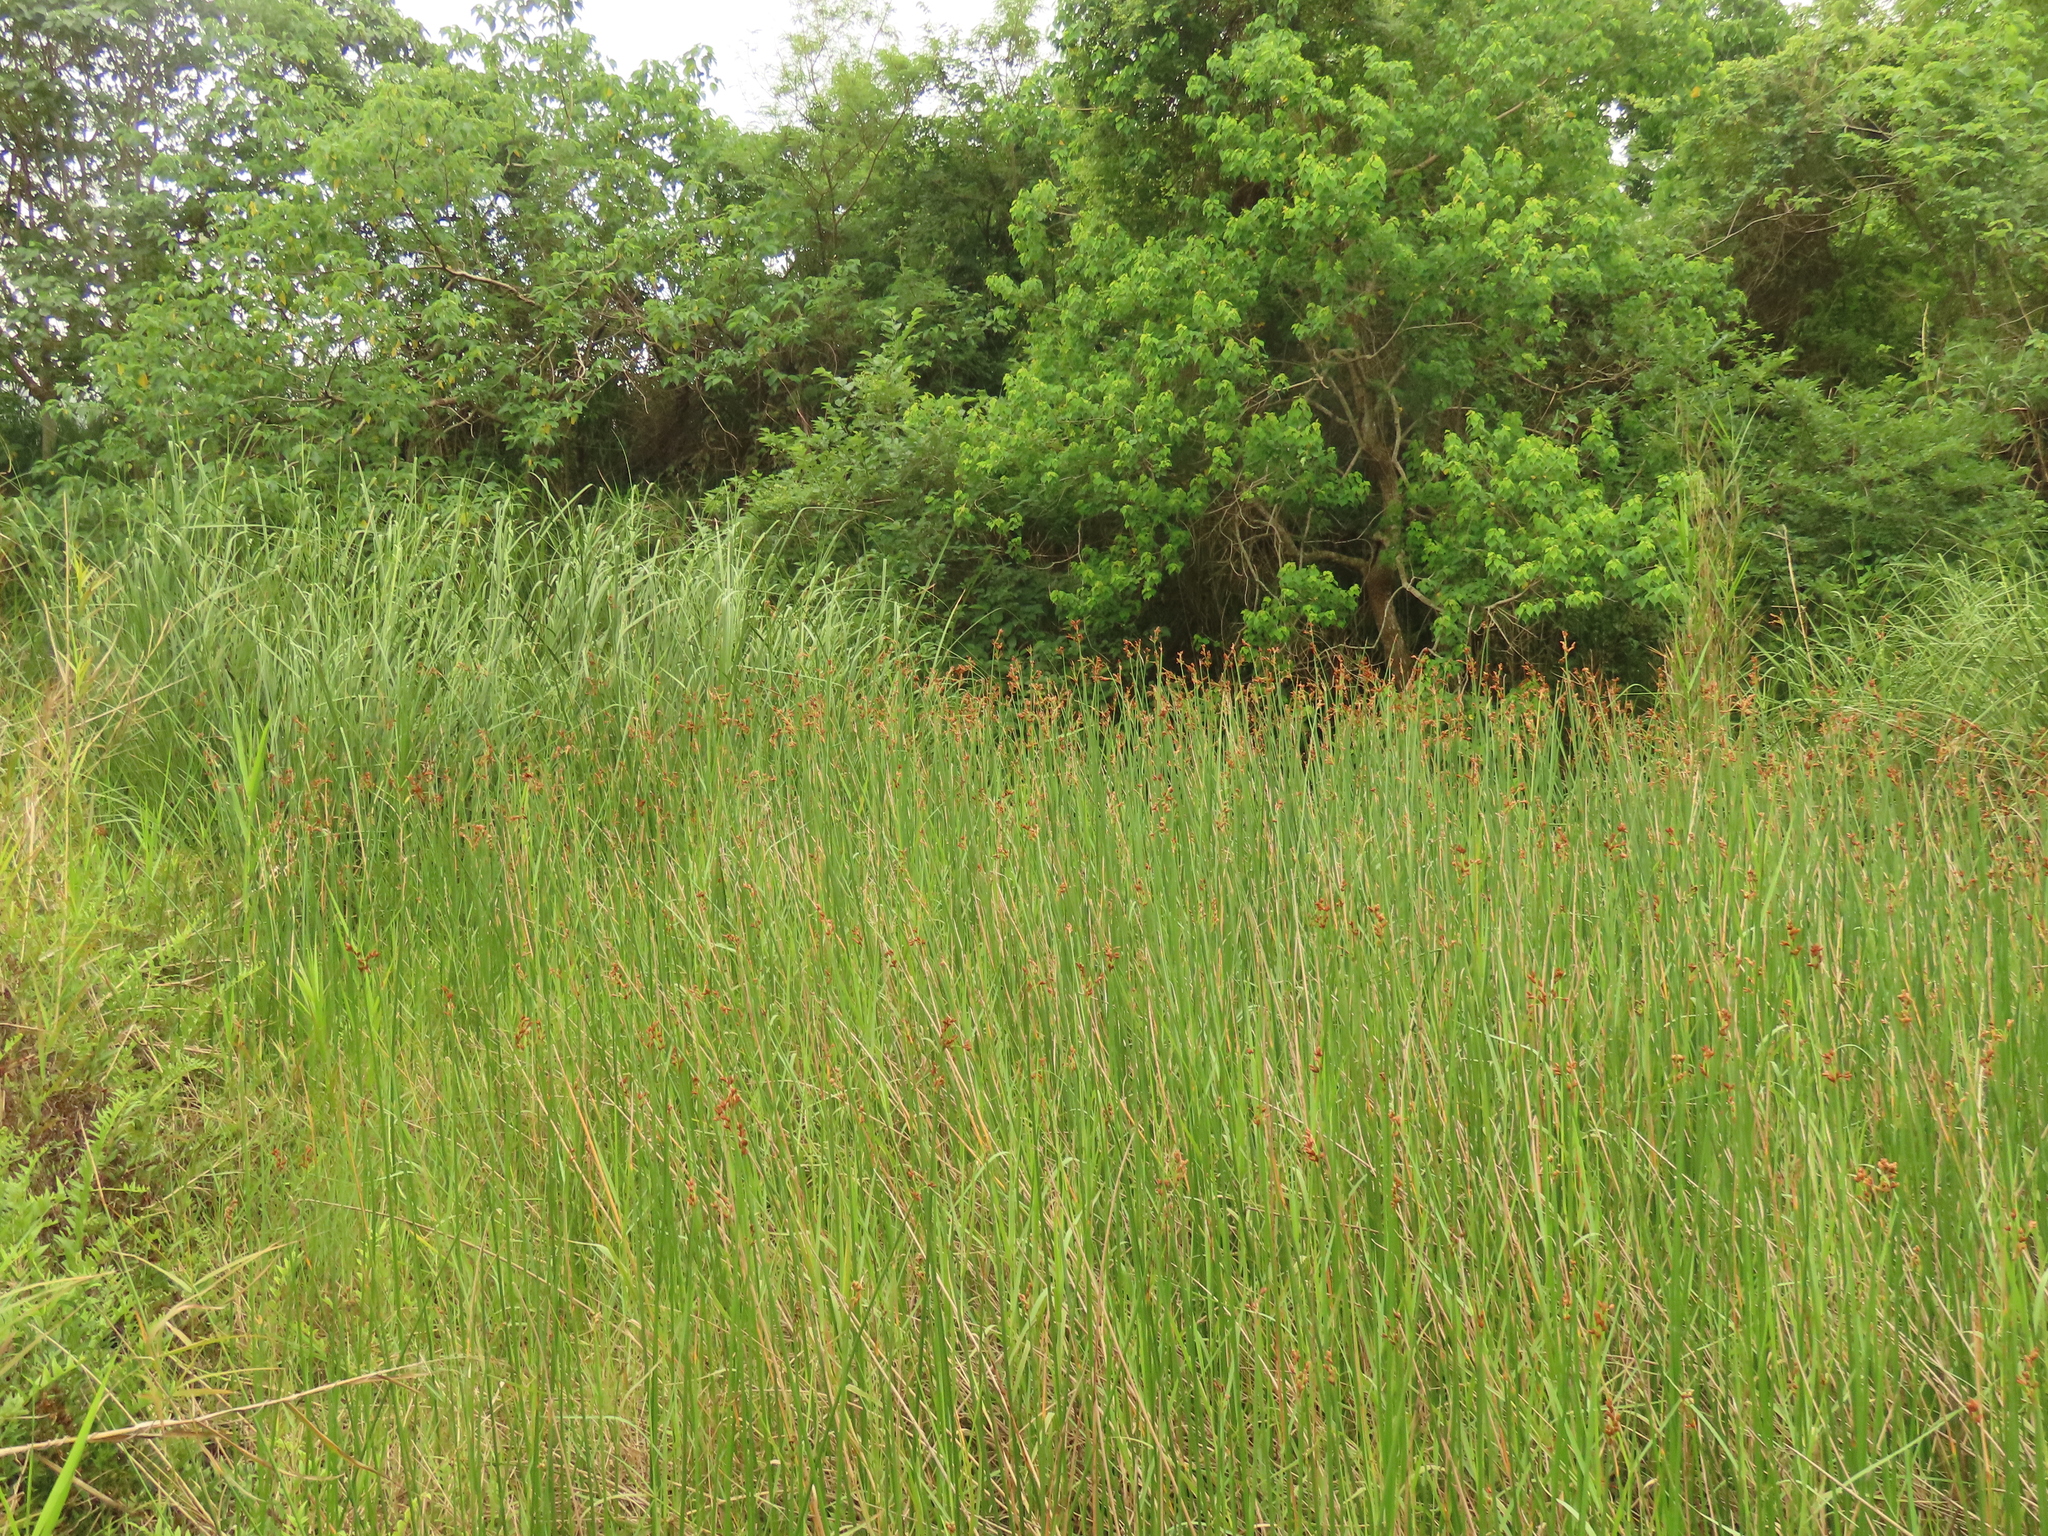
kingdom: Plantae
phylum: Tracheophyta
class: Liliopsida
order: Poales
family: Cyperaceae
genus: Schoenoplectus
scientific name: Schoenoplectus tabernaemontani
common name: Grey club-rush
